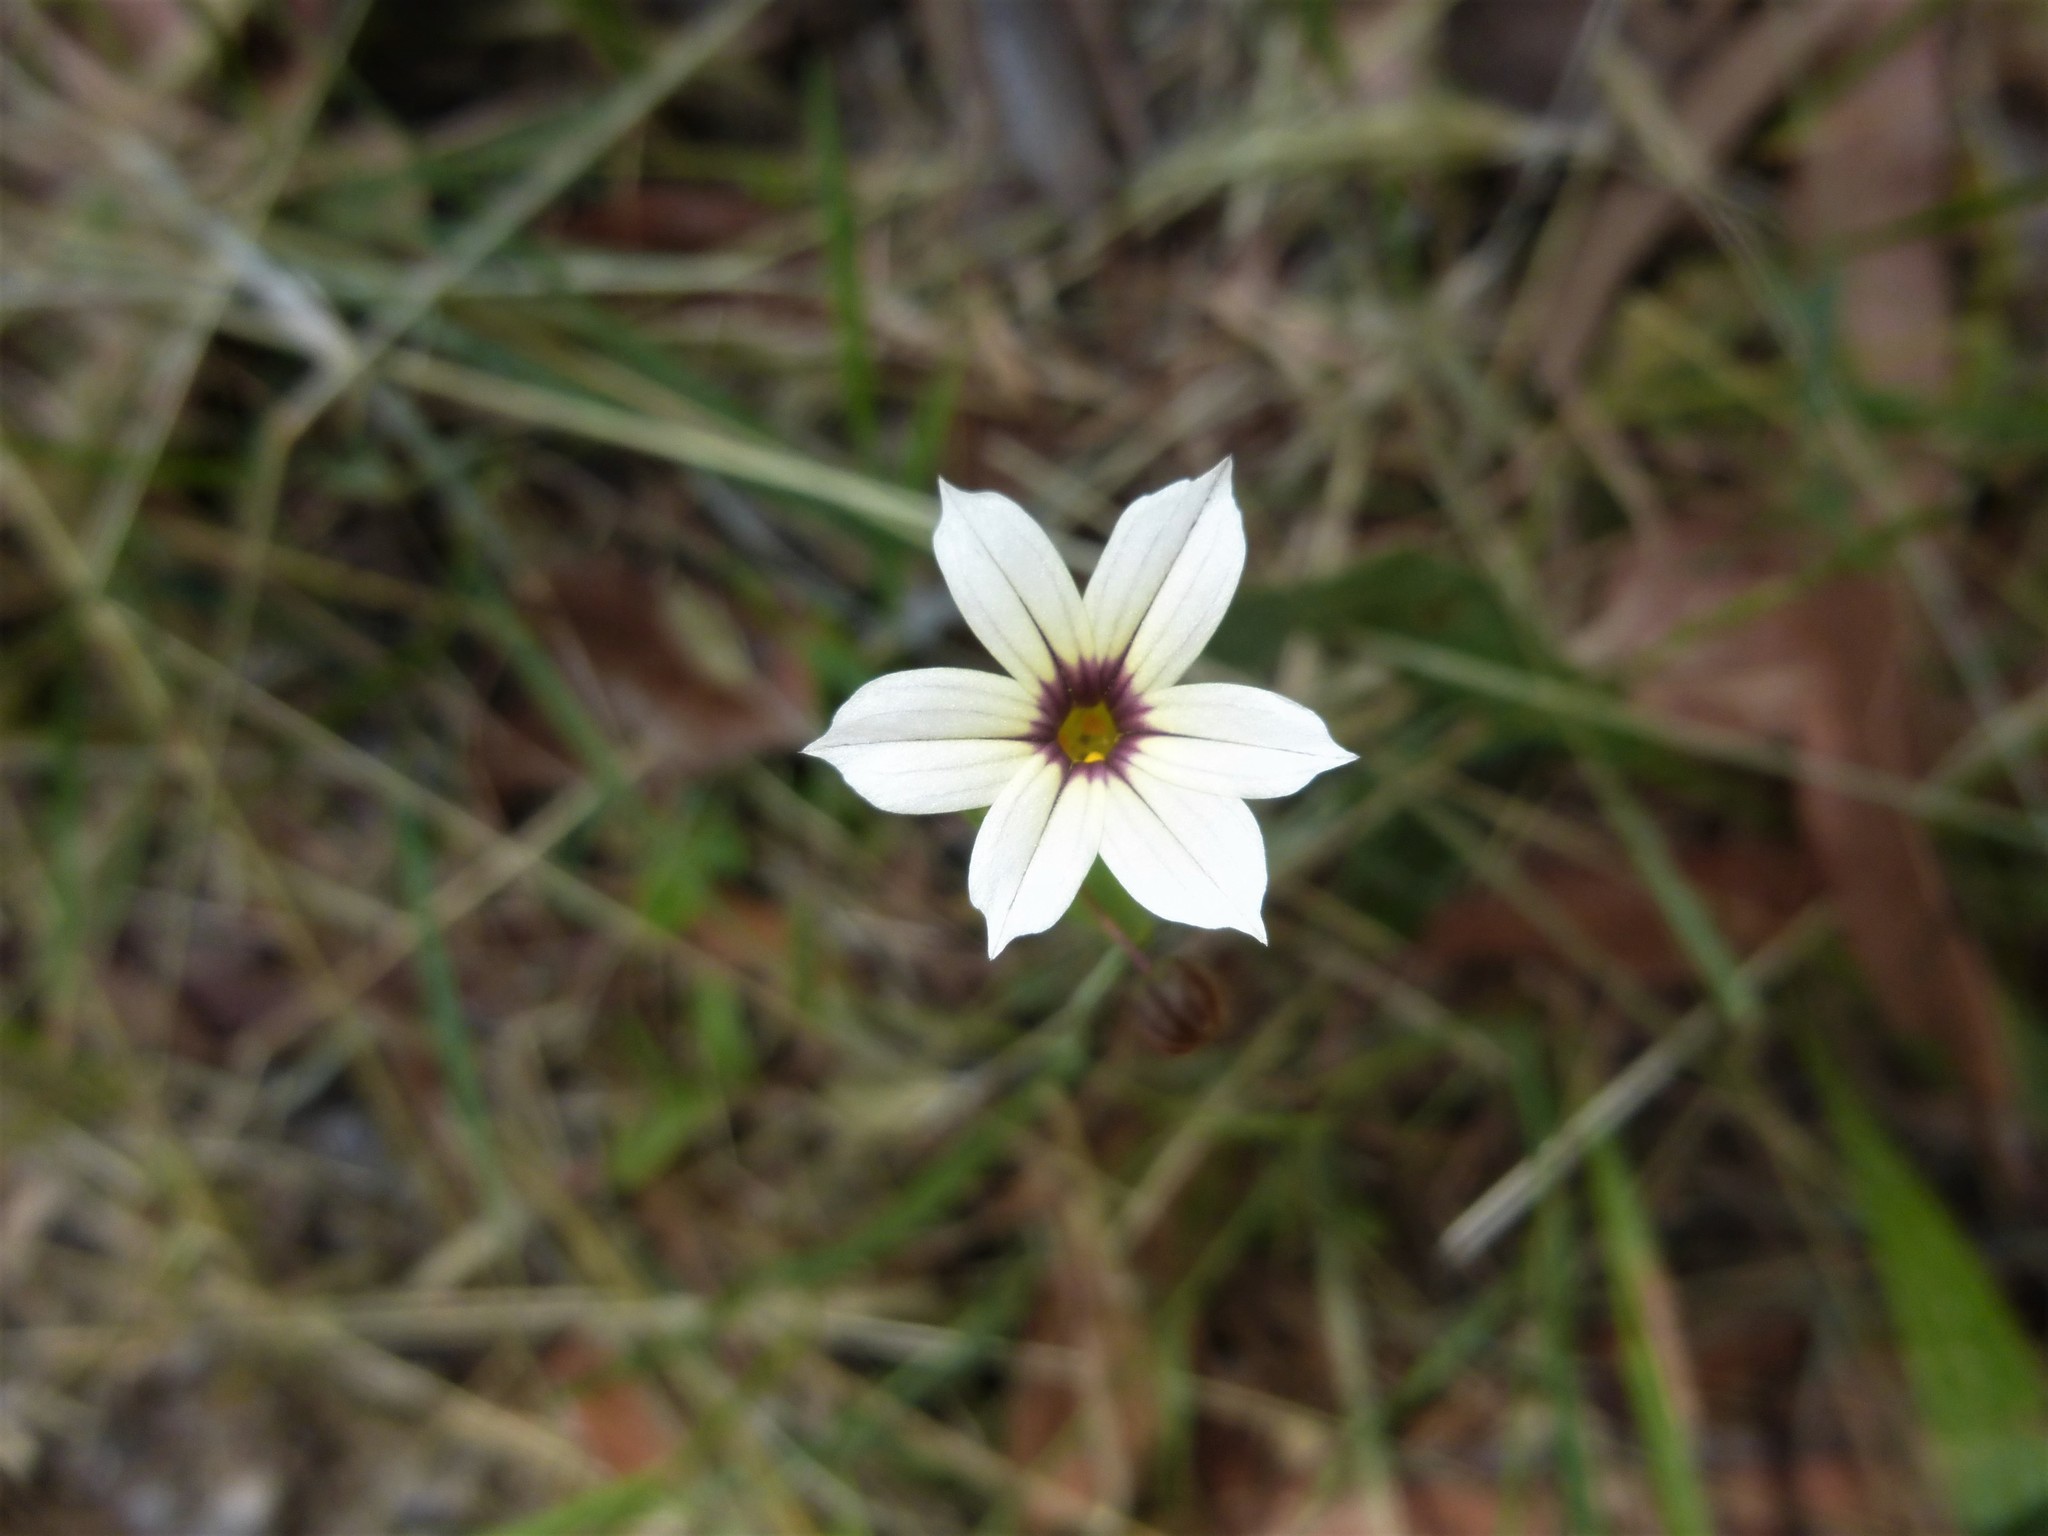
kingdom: Plantae
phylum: Tracheophyta
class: Liliopsida
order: Asparagales
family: Iridaceae
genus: Sisyrinchium
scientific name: Sisyrinchium micranthum
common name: Bermuda pigroot
